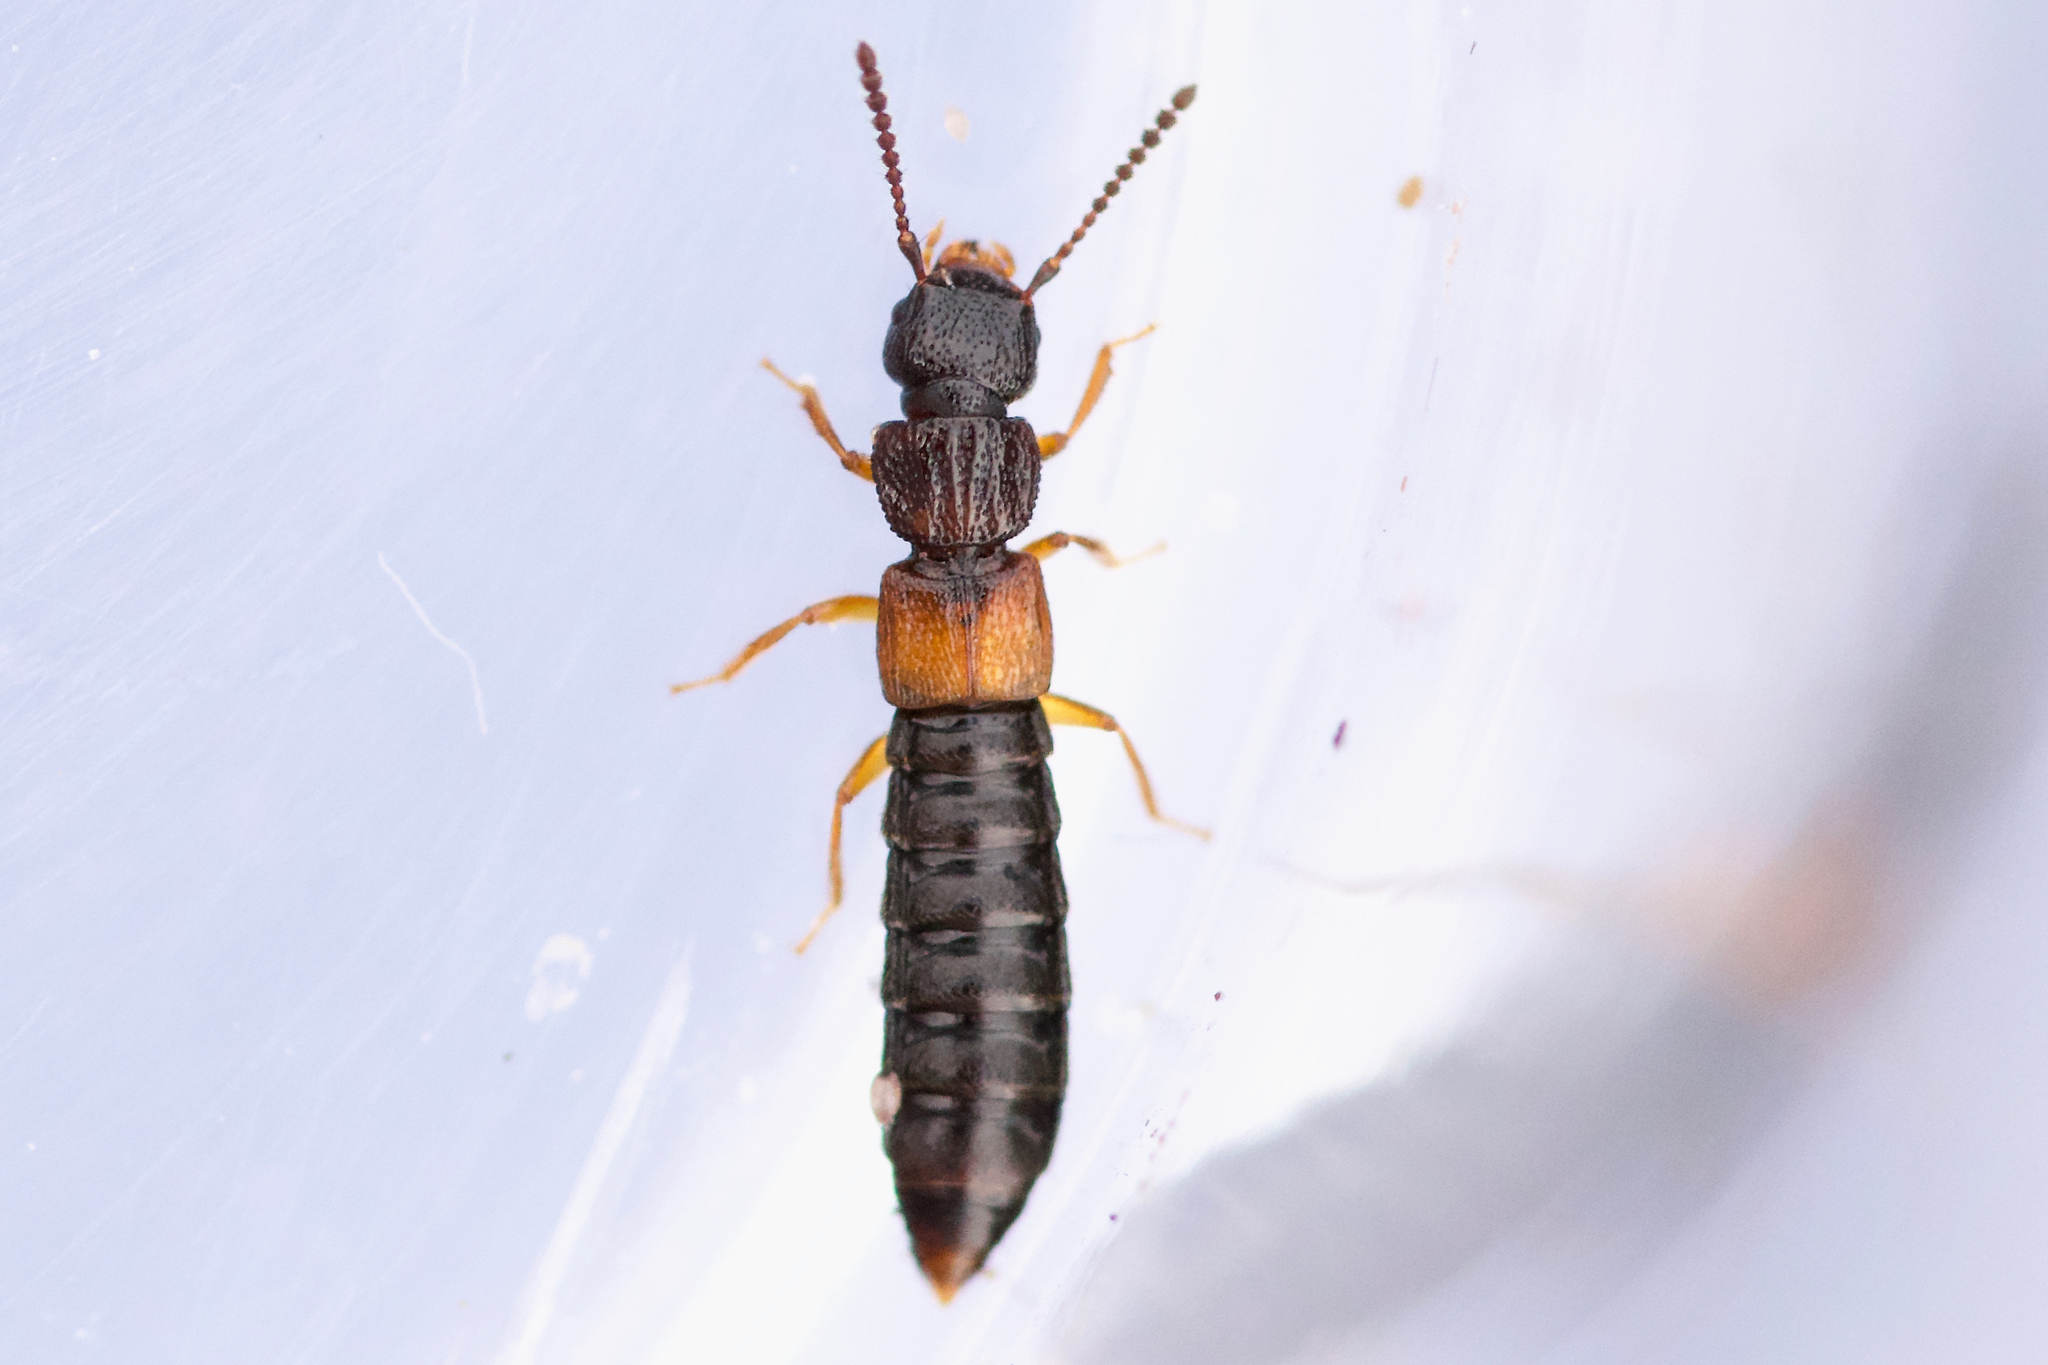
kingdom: Animalia
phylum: Arthropoda
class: Insecta
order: Coleoptera
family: Staphylinidae
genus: Anotylus
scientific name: Anotylus insecatus
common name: Rove beetle
